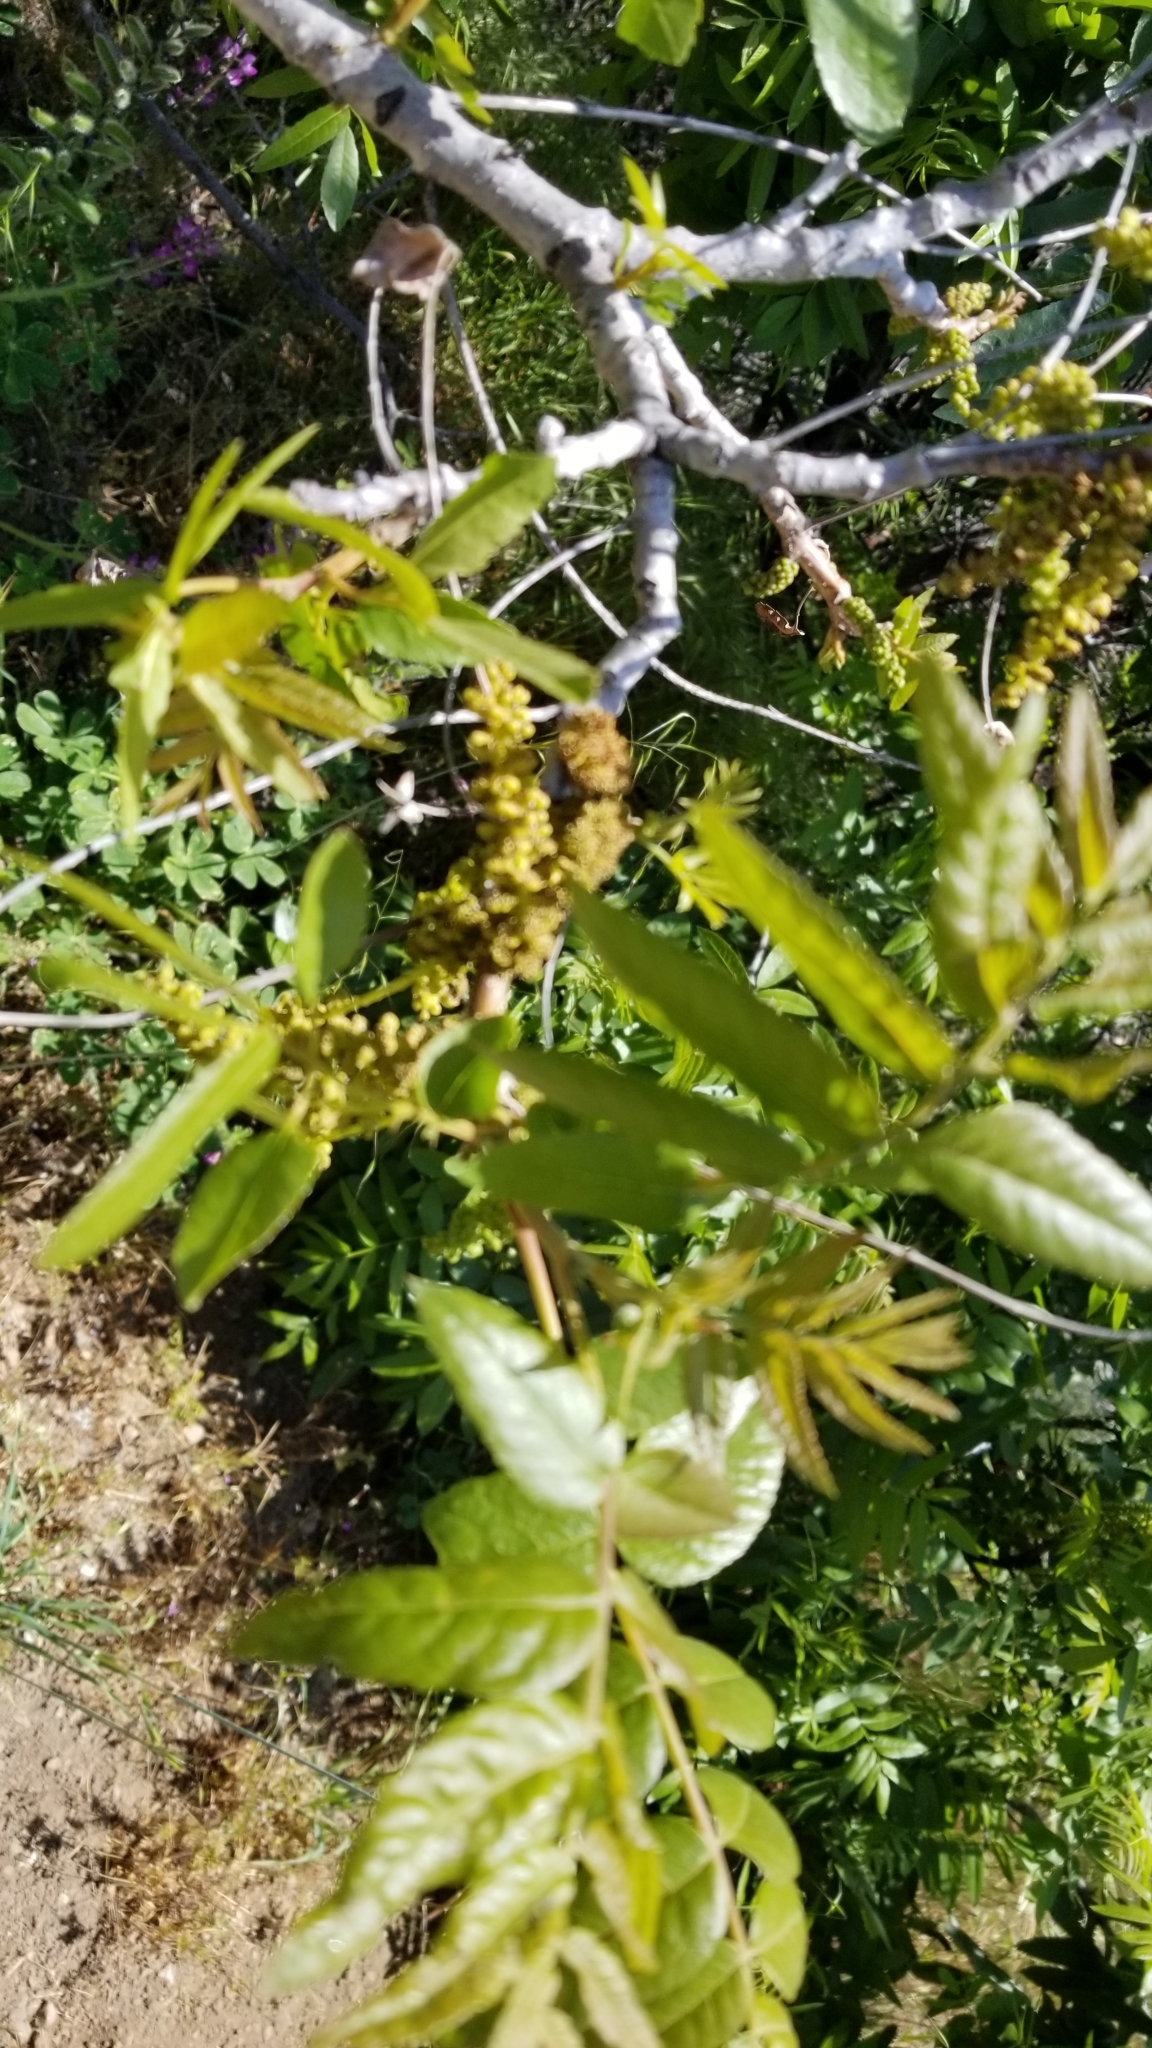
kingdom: Plantae
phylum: Tracheophyta
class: Magnoliopsida
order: Fagales
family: Juglandaceae
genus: Juglans
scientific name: Juglans californica
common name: Southern california black walnut
